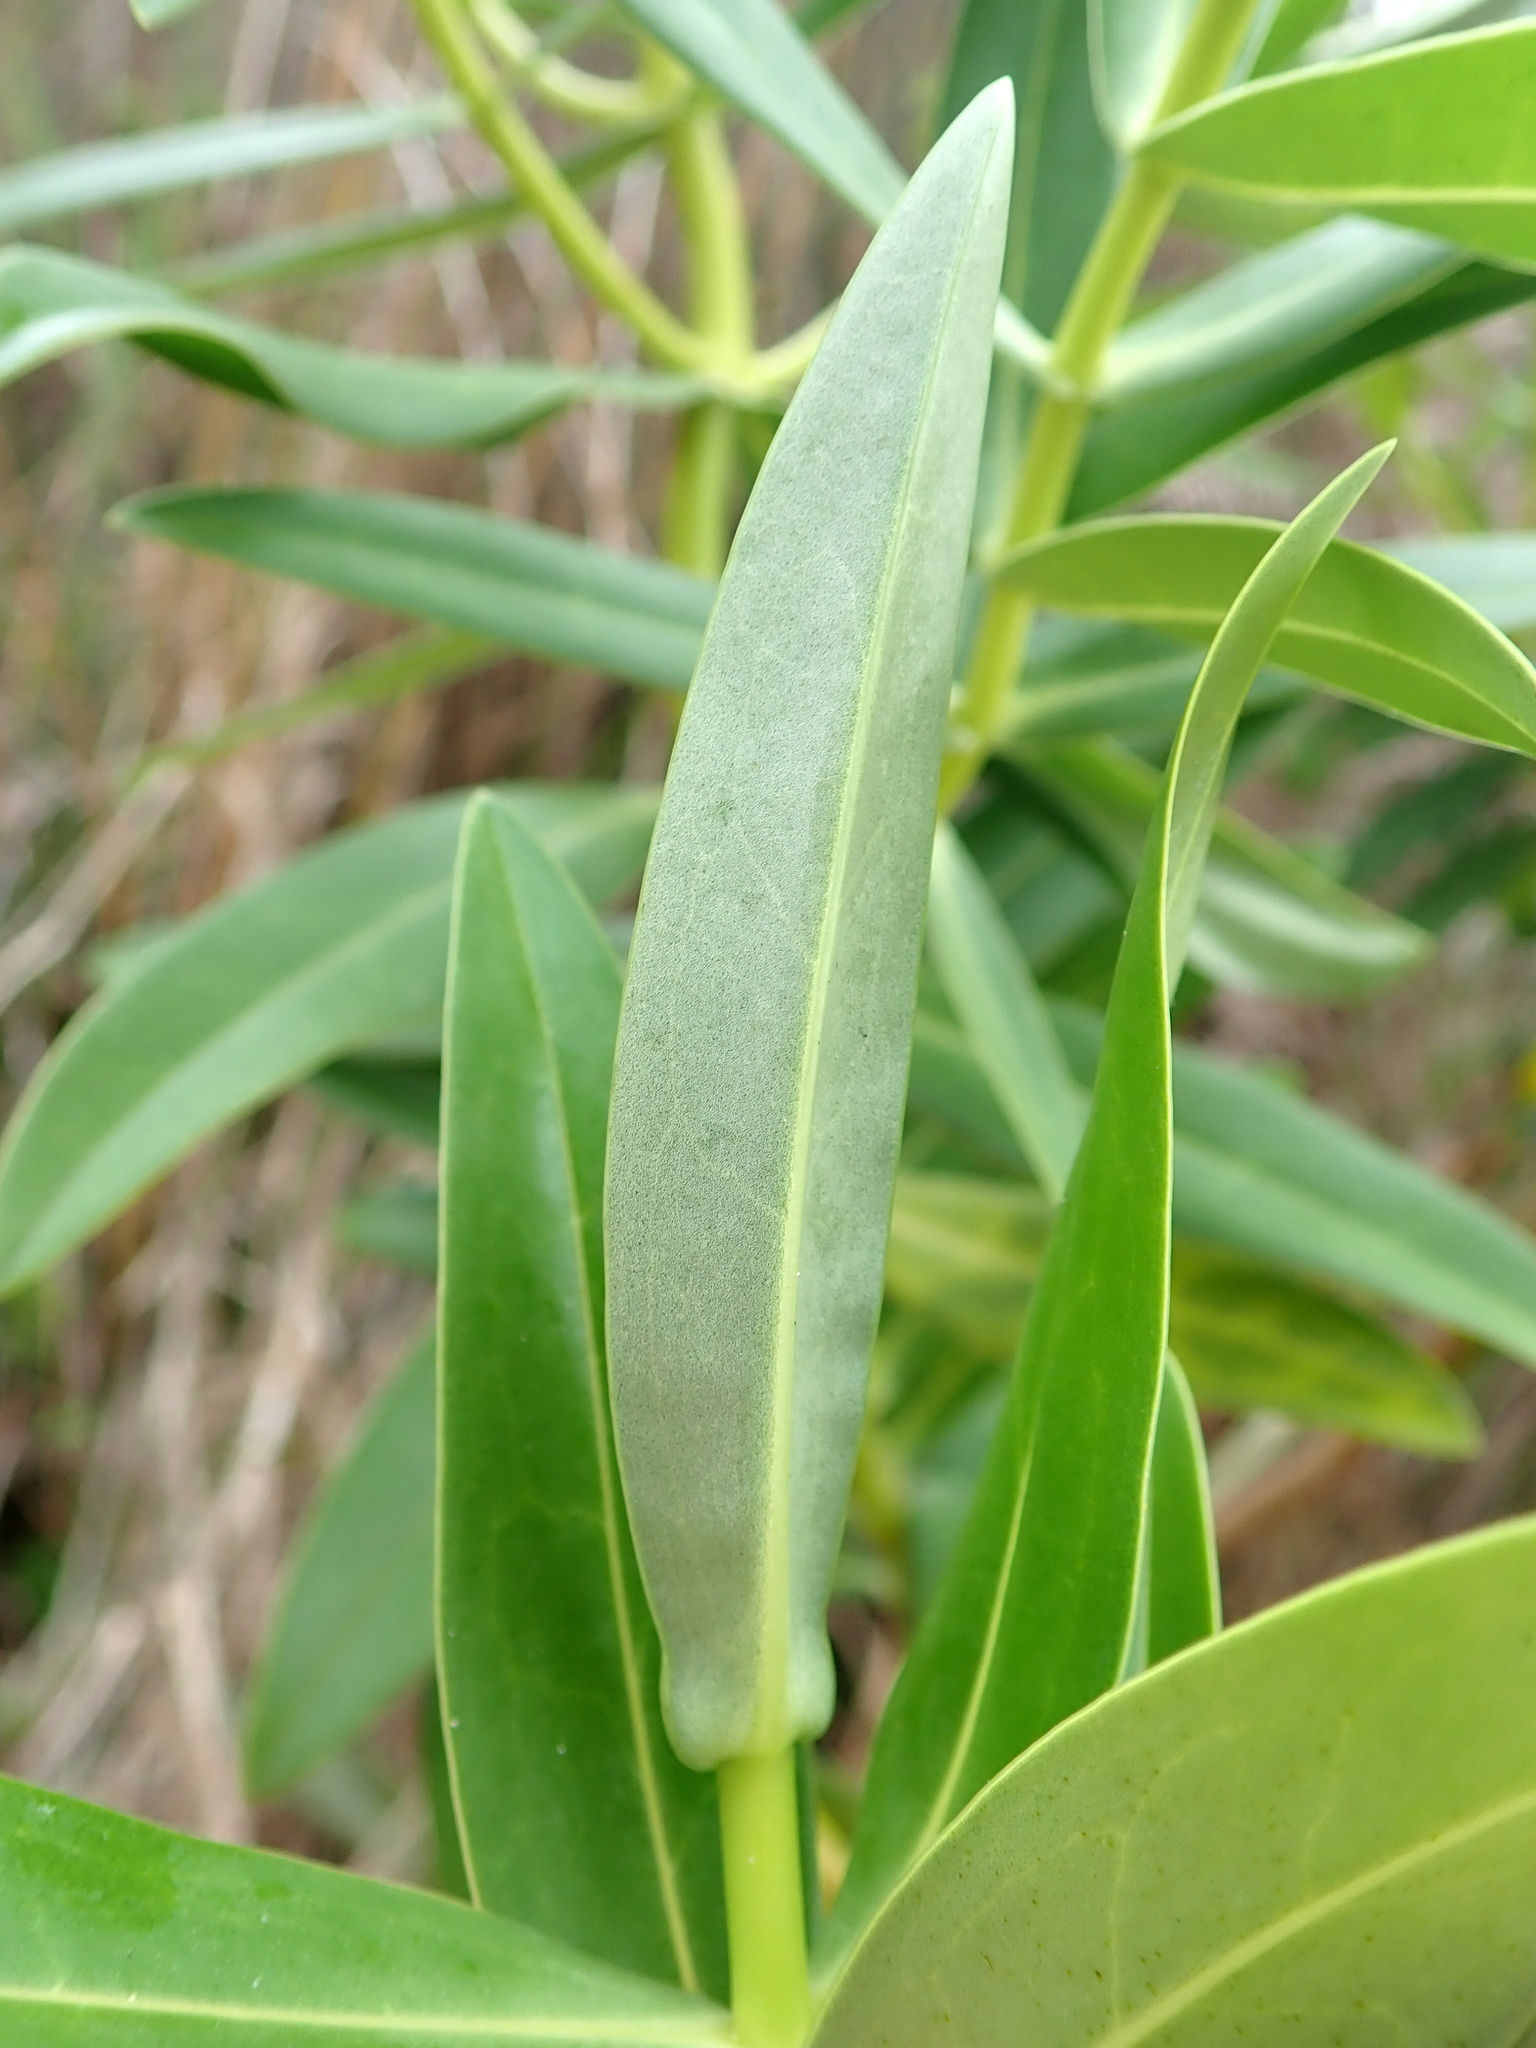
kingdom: Plantae
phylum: Tracheophyta
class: Magnoliopsida
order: Lamiales
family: Plantaginaceae
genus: Veronica
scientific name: Veronica dieffenbachii
